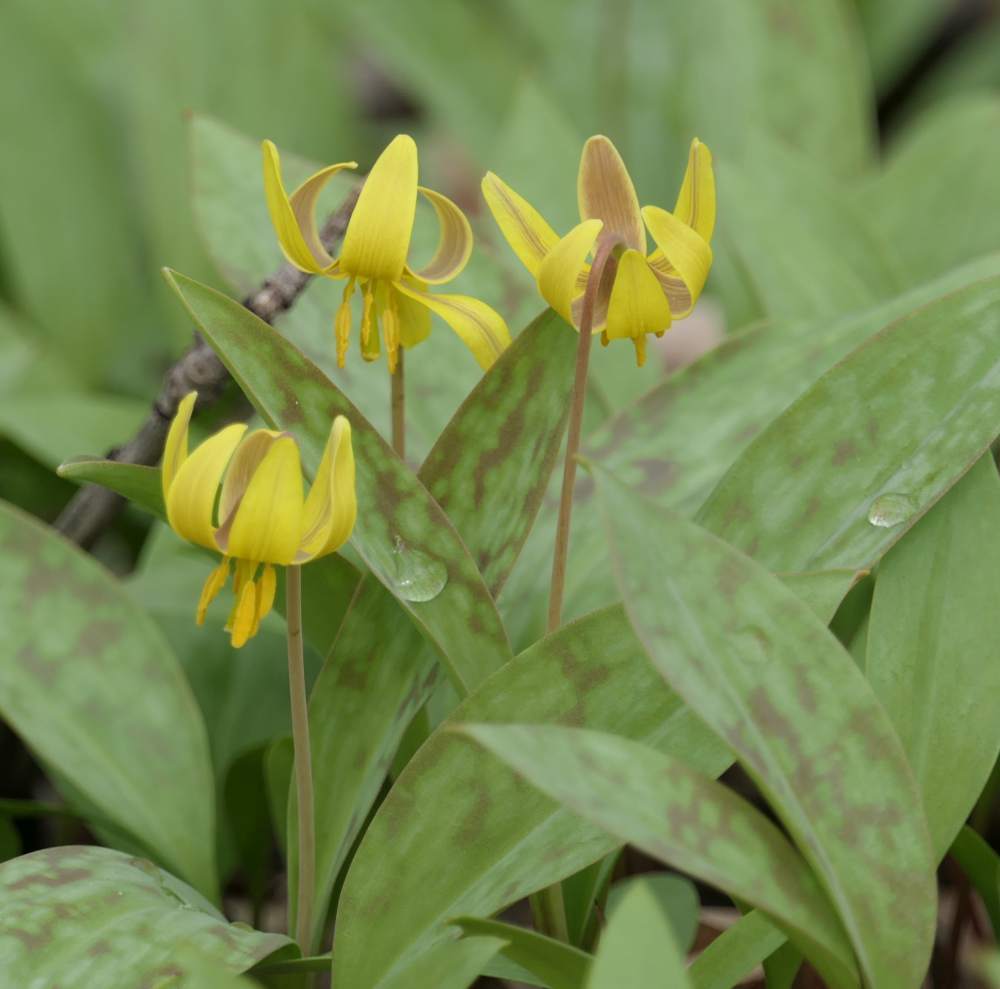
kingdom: Plantae
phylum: Tracheophyta
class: Liliopsida
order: Liliales
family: Liliaceae
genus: Erythronium
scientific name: Erythronium americanum
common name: Yellow adder's-tongue
